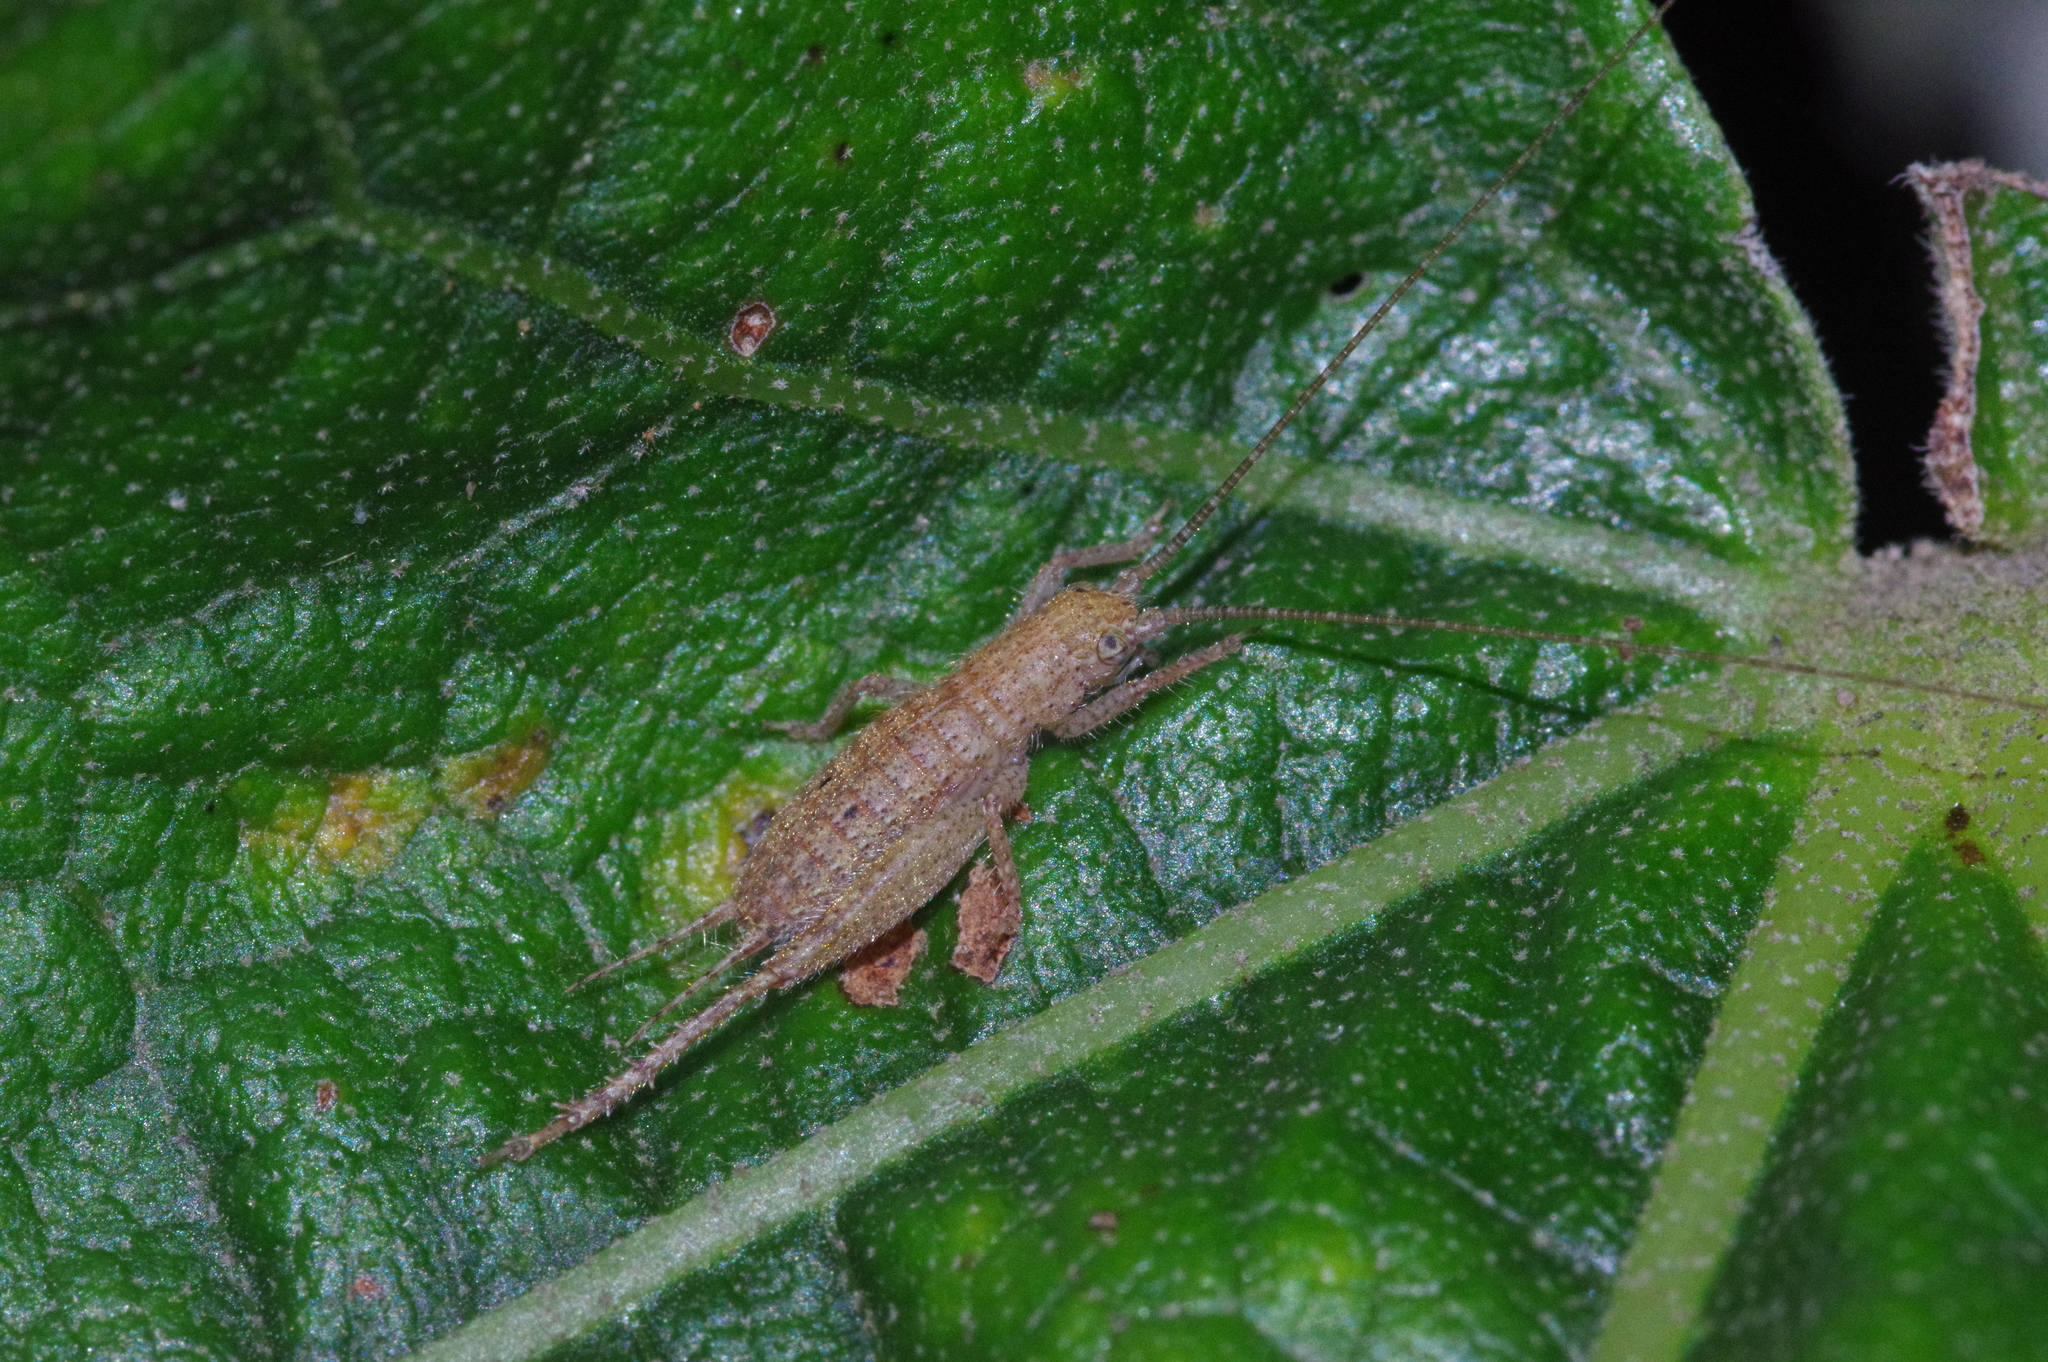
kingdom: Animalia
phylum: Arthropoda
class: Insecta
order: Orthoptera
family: Gryllidae
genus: Aphonoides
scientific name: Aphonoides rufescens
